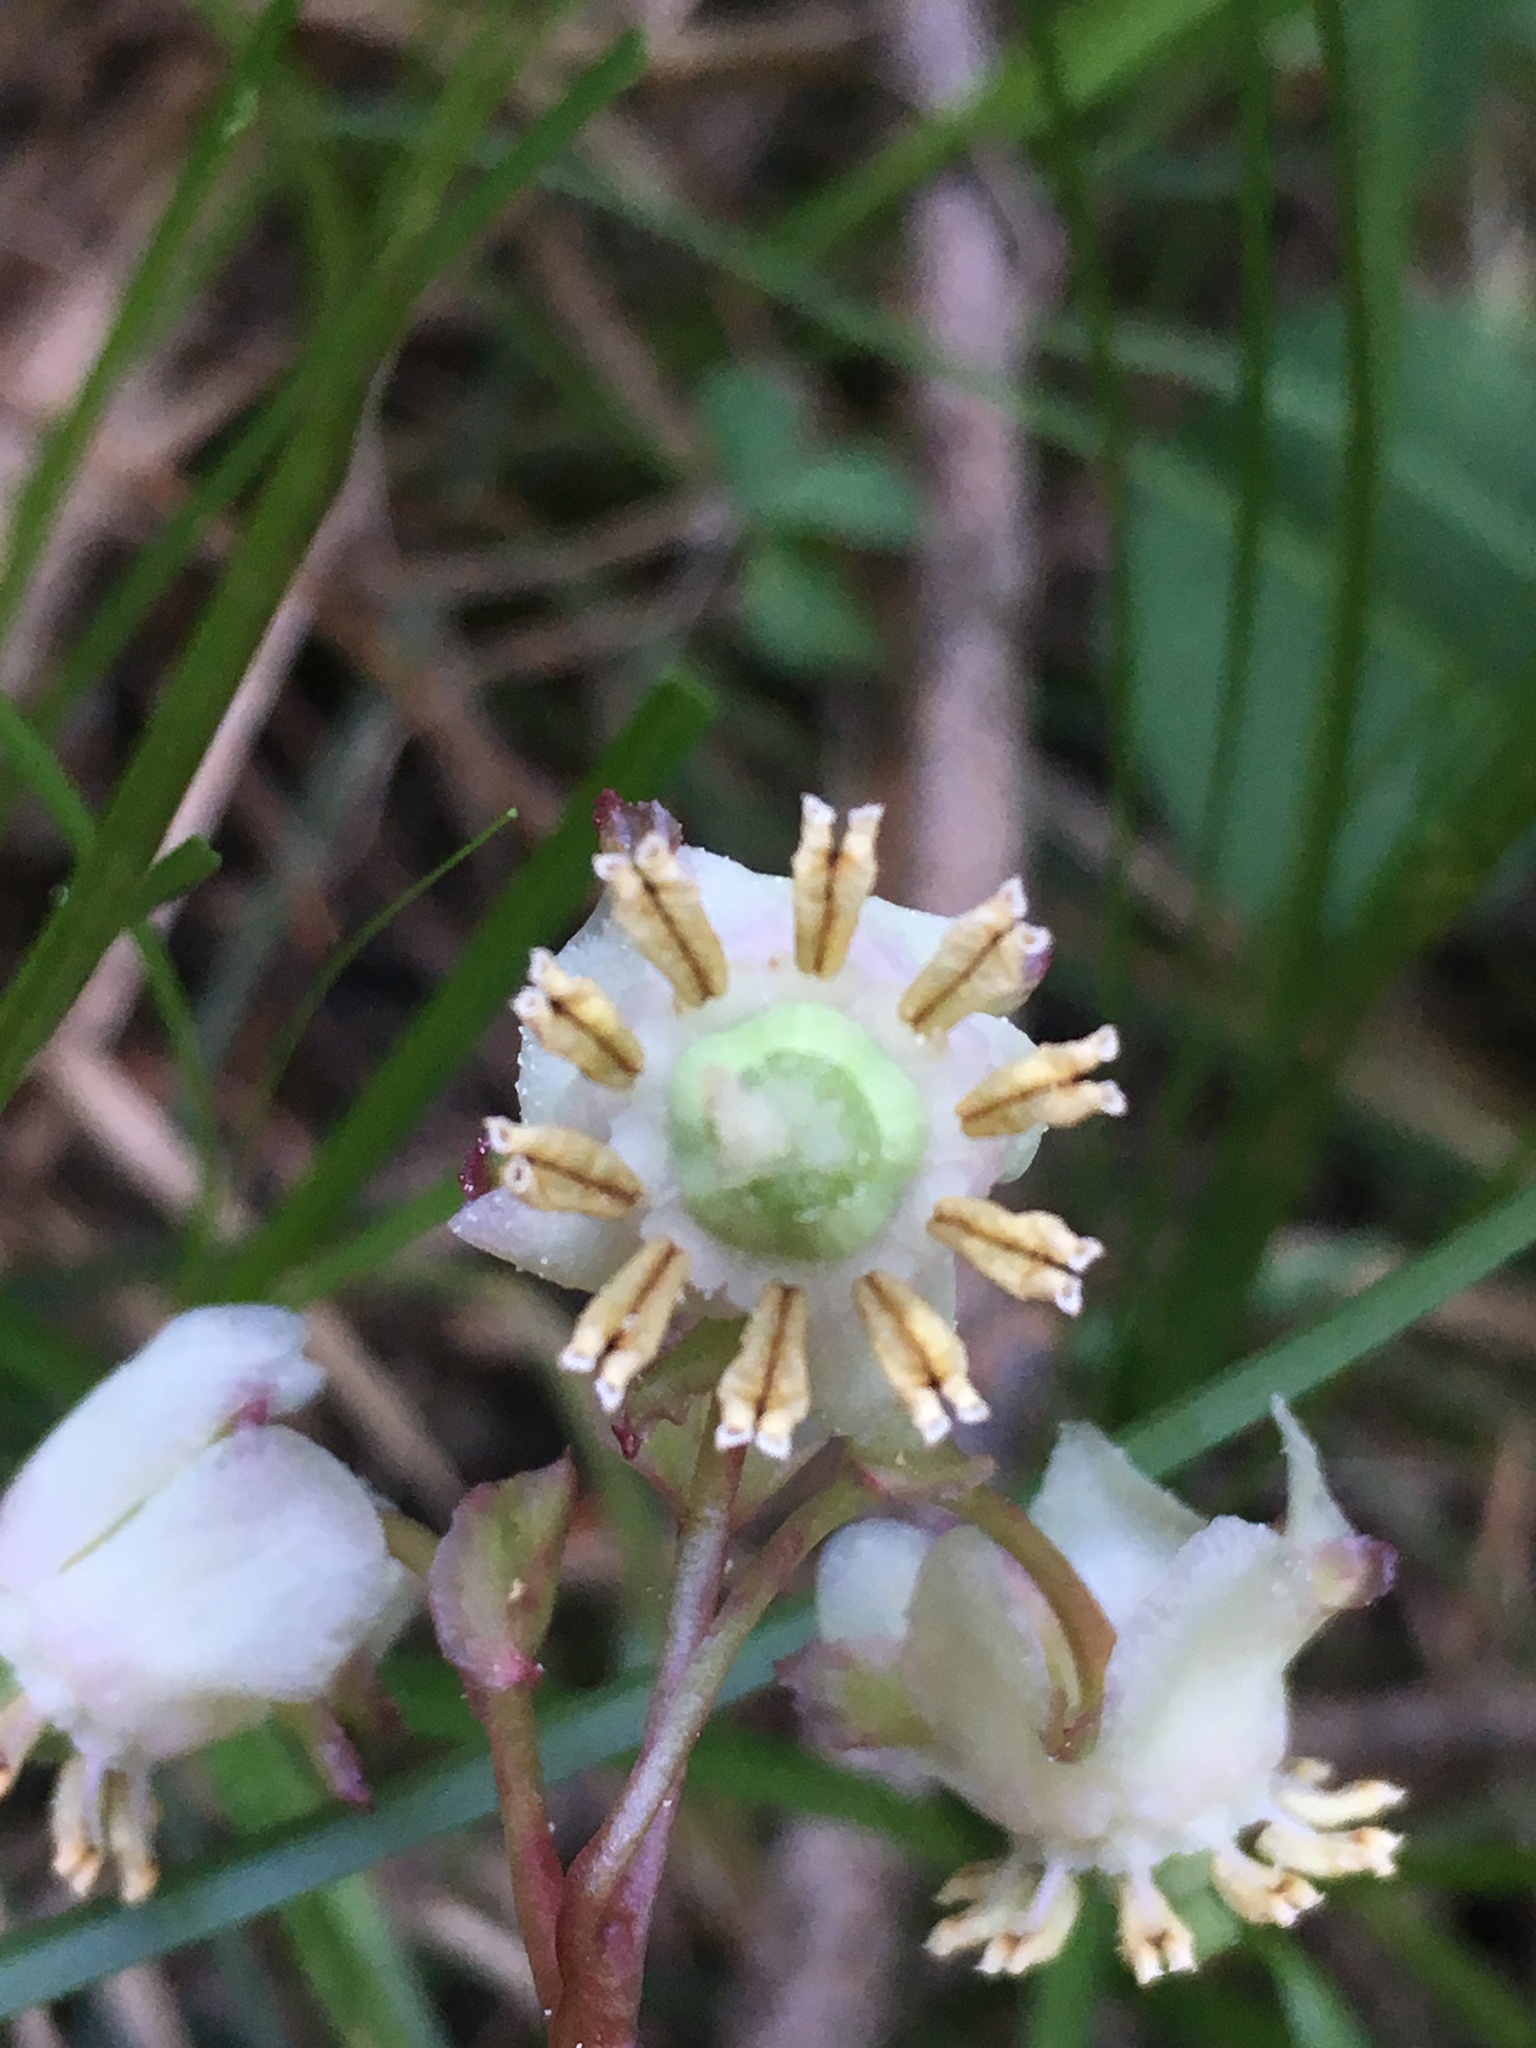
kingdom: Plantae
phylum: Tracheophyta
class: Magnoliopsida
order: Ericales
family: Ericaceae
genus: Chimaphila
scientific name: Chimaphila menziesii
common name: Menzies' pipsissewa
